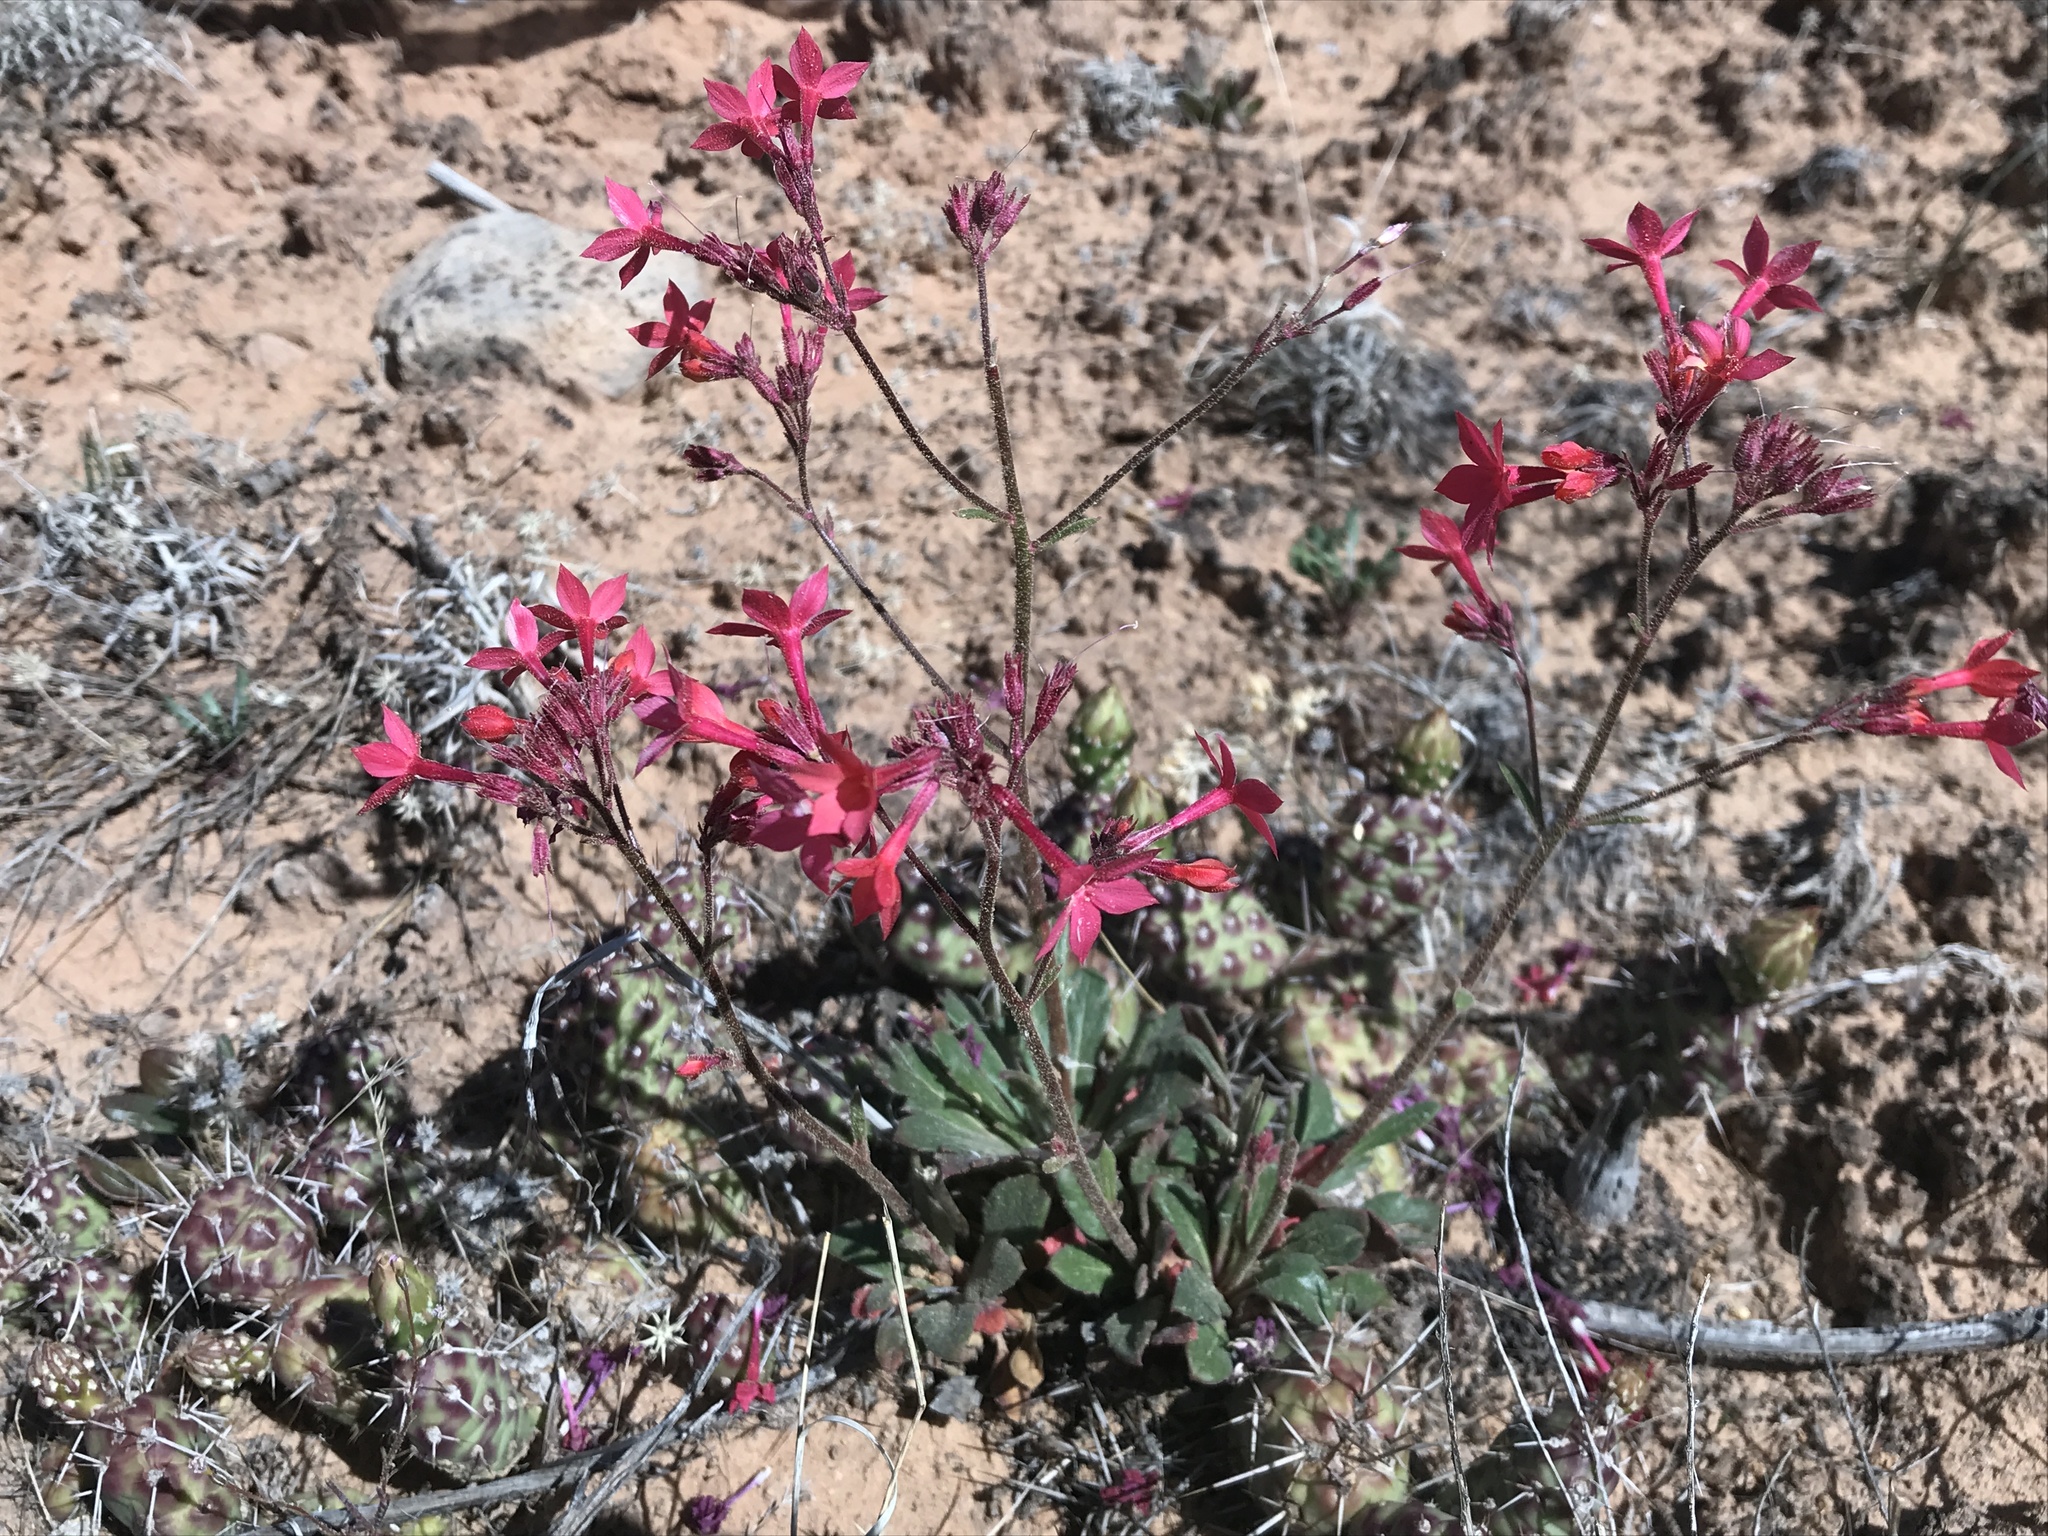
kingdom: Plantae
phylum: Tracheophyta
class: Magnoliopsida
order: Ericales
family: Polemoniaceae
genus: Aliciella
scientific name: Aliciella subnuda
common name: Coral gilia
